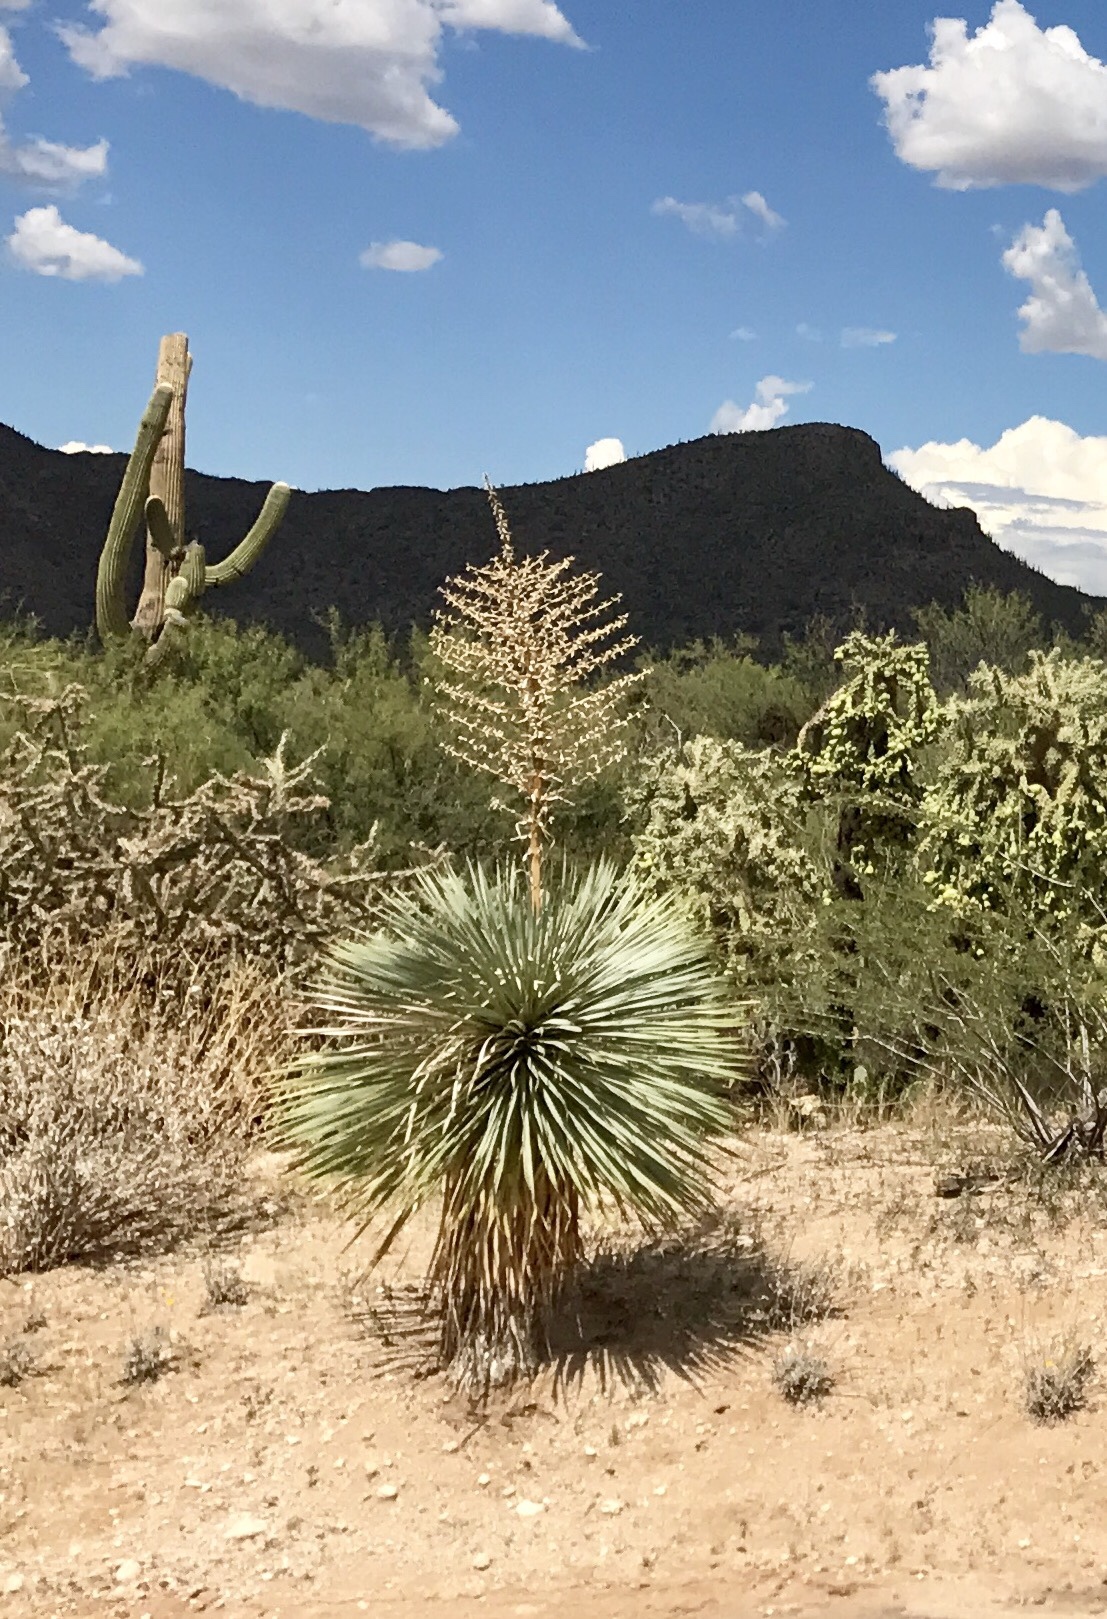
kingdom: Plantae
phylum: Tracheophyta
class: Liliopsida
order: Asparagales
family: Asparagaceae
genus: Yucca
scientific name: Yucca elata
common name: Palmella
